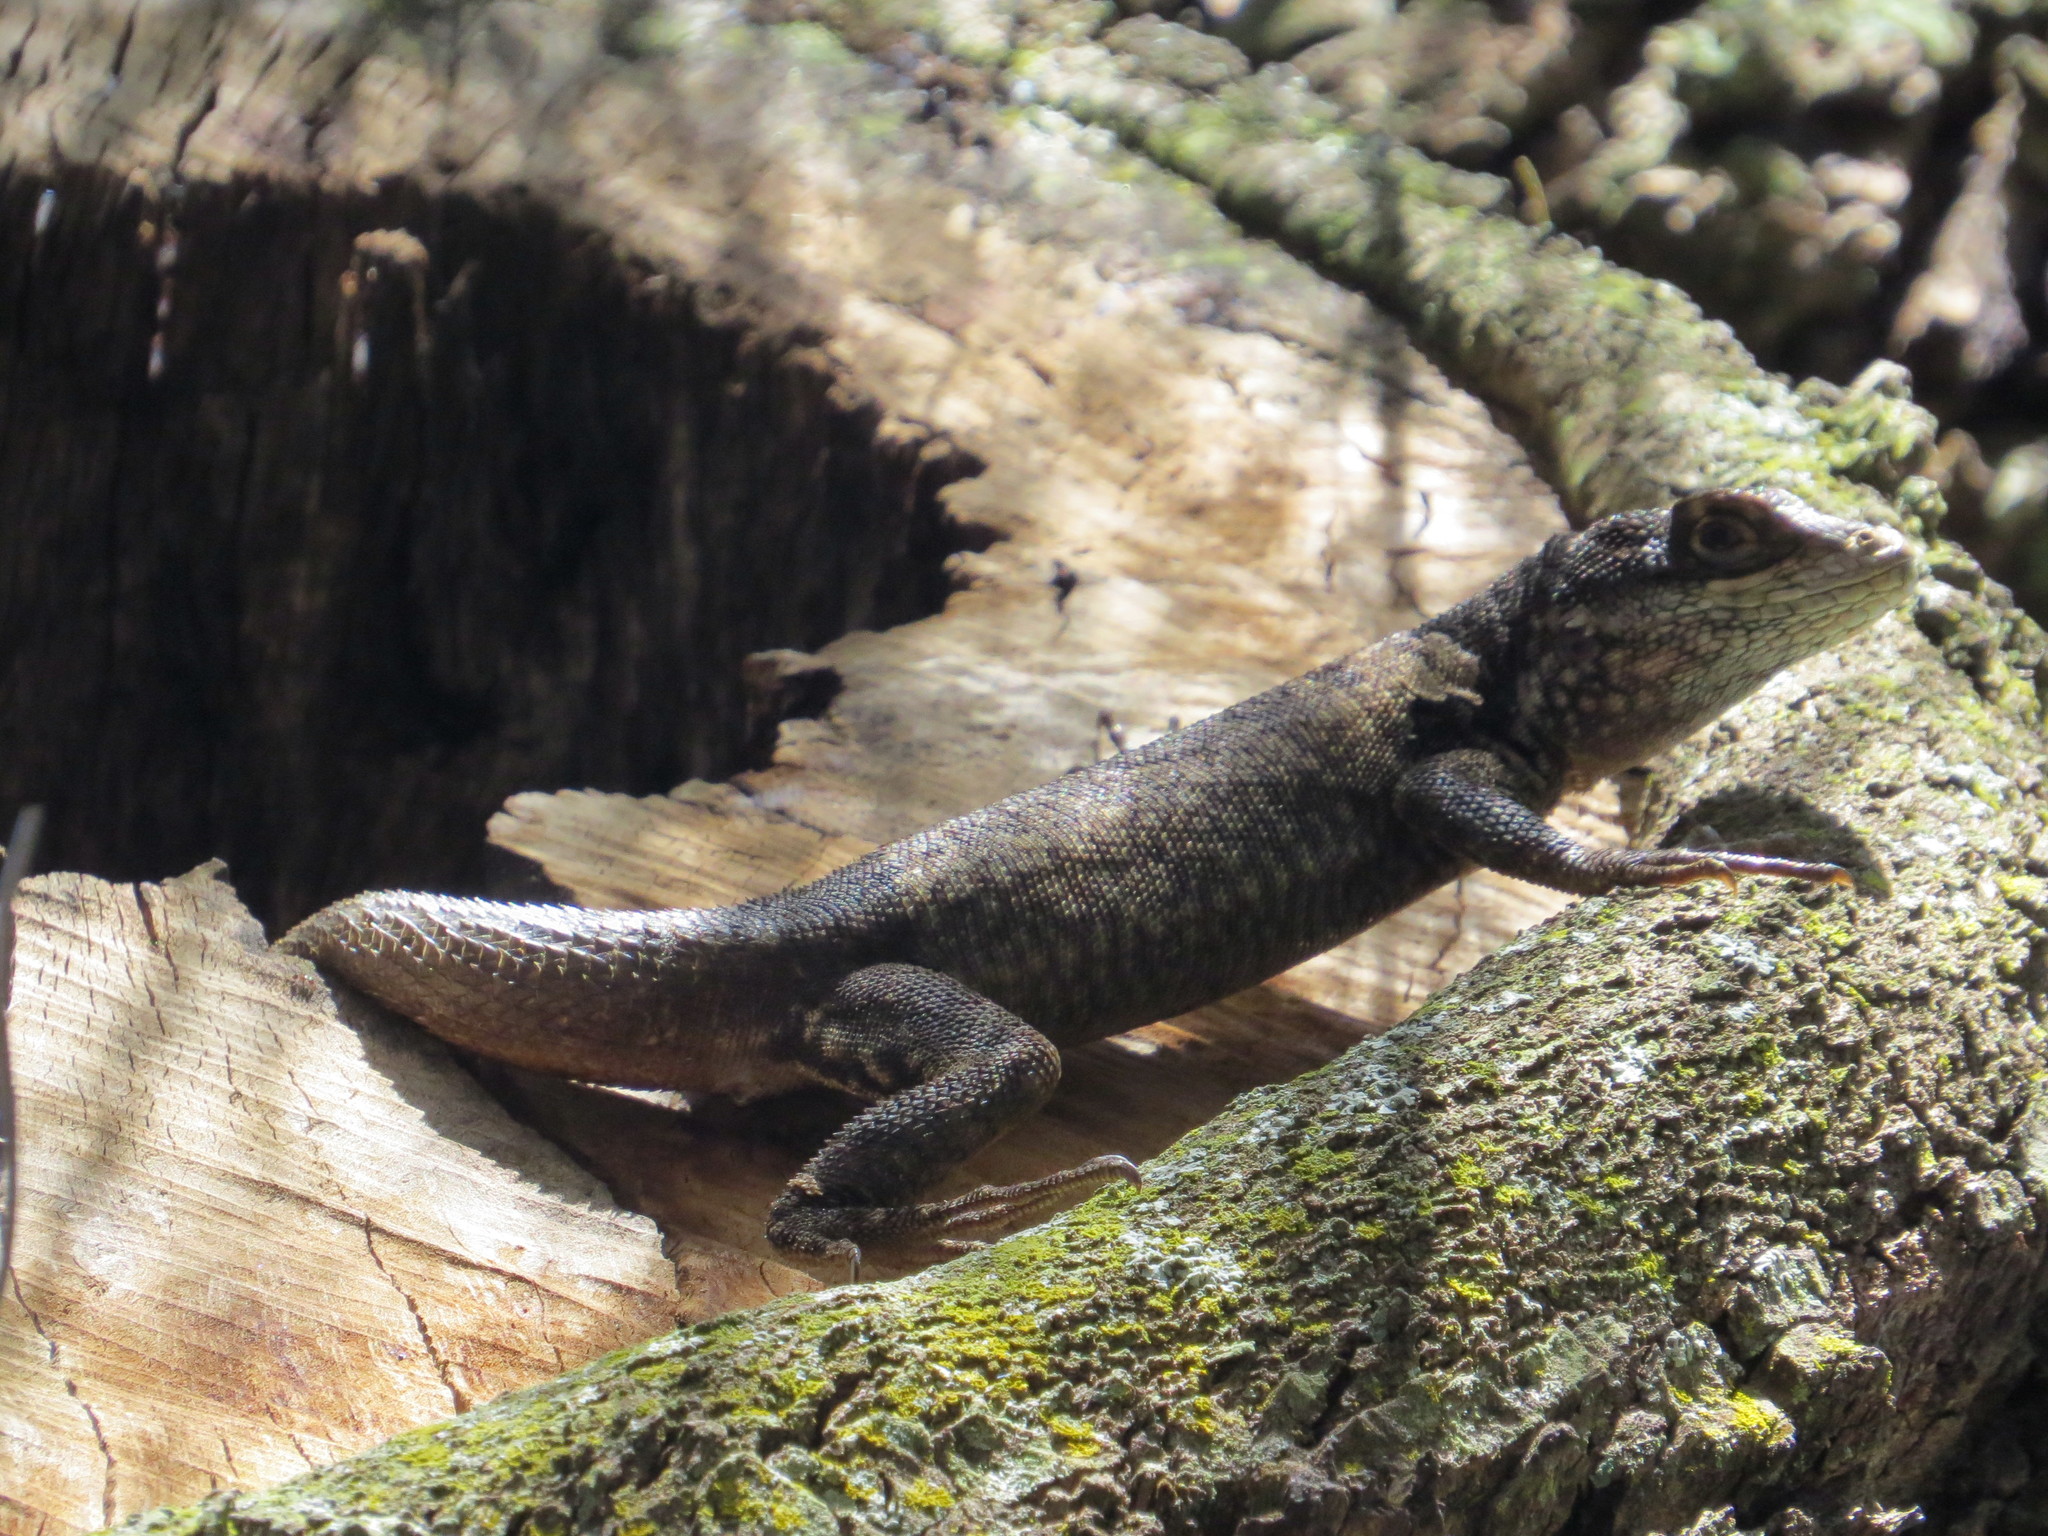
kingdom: Animalia
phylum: Chordata
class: Squamata
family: Tropiduridae
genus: Tropidurus
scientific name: Tropidurus torquatus
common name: Amazon lava lizard
